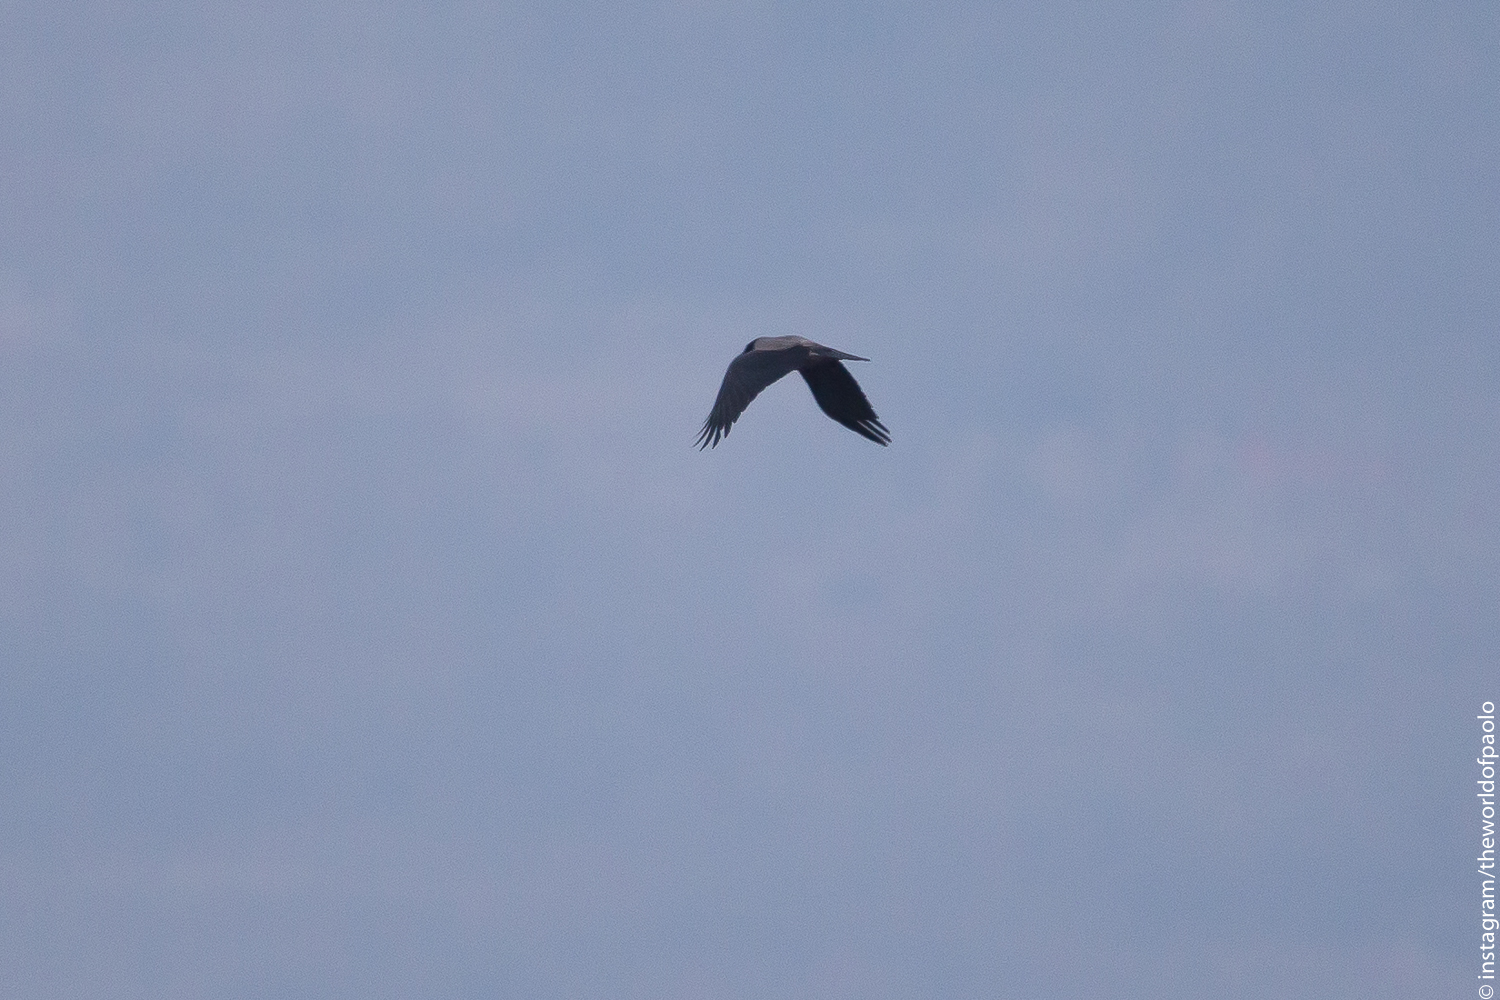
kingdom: Animalia
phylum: Chordata
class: Aves
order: Passeriformes
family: Corvidae
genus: Corvus
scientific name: Corvus cornix
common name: Hooded crow
